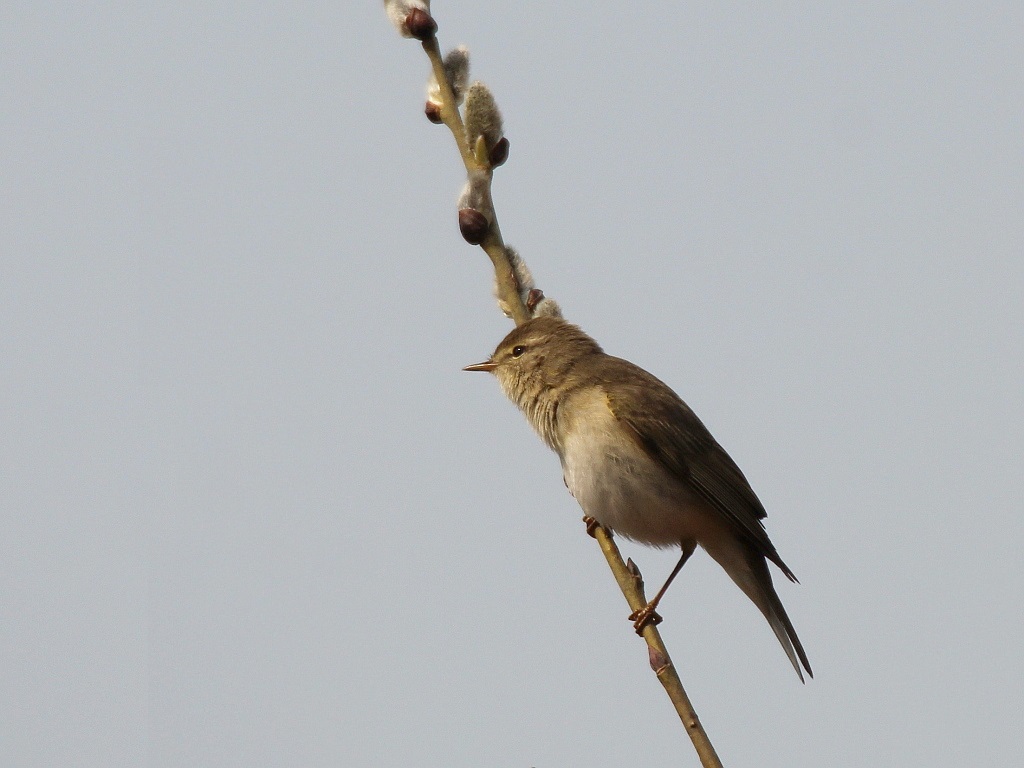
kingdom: Animalia
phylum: Chordata
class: Aves
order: Passeriformes
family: Phylloscopidae
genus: Phylloscopus
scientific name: Phylloscopus trochilus
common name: Willow warbler
